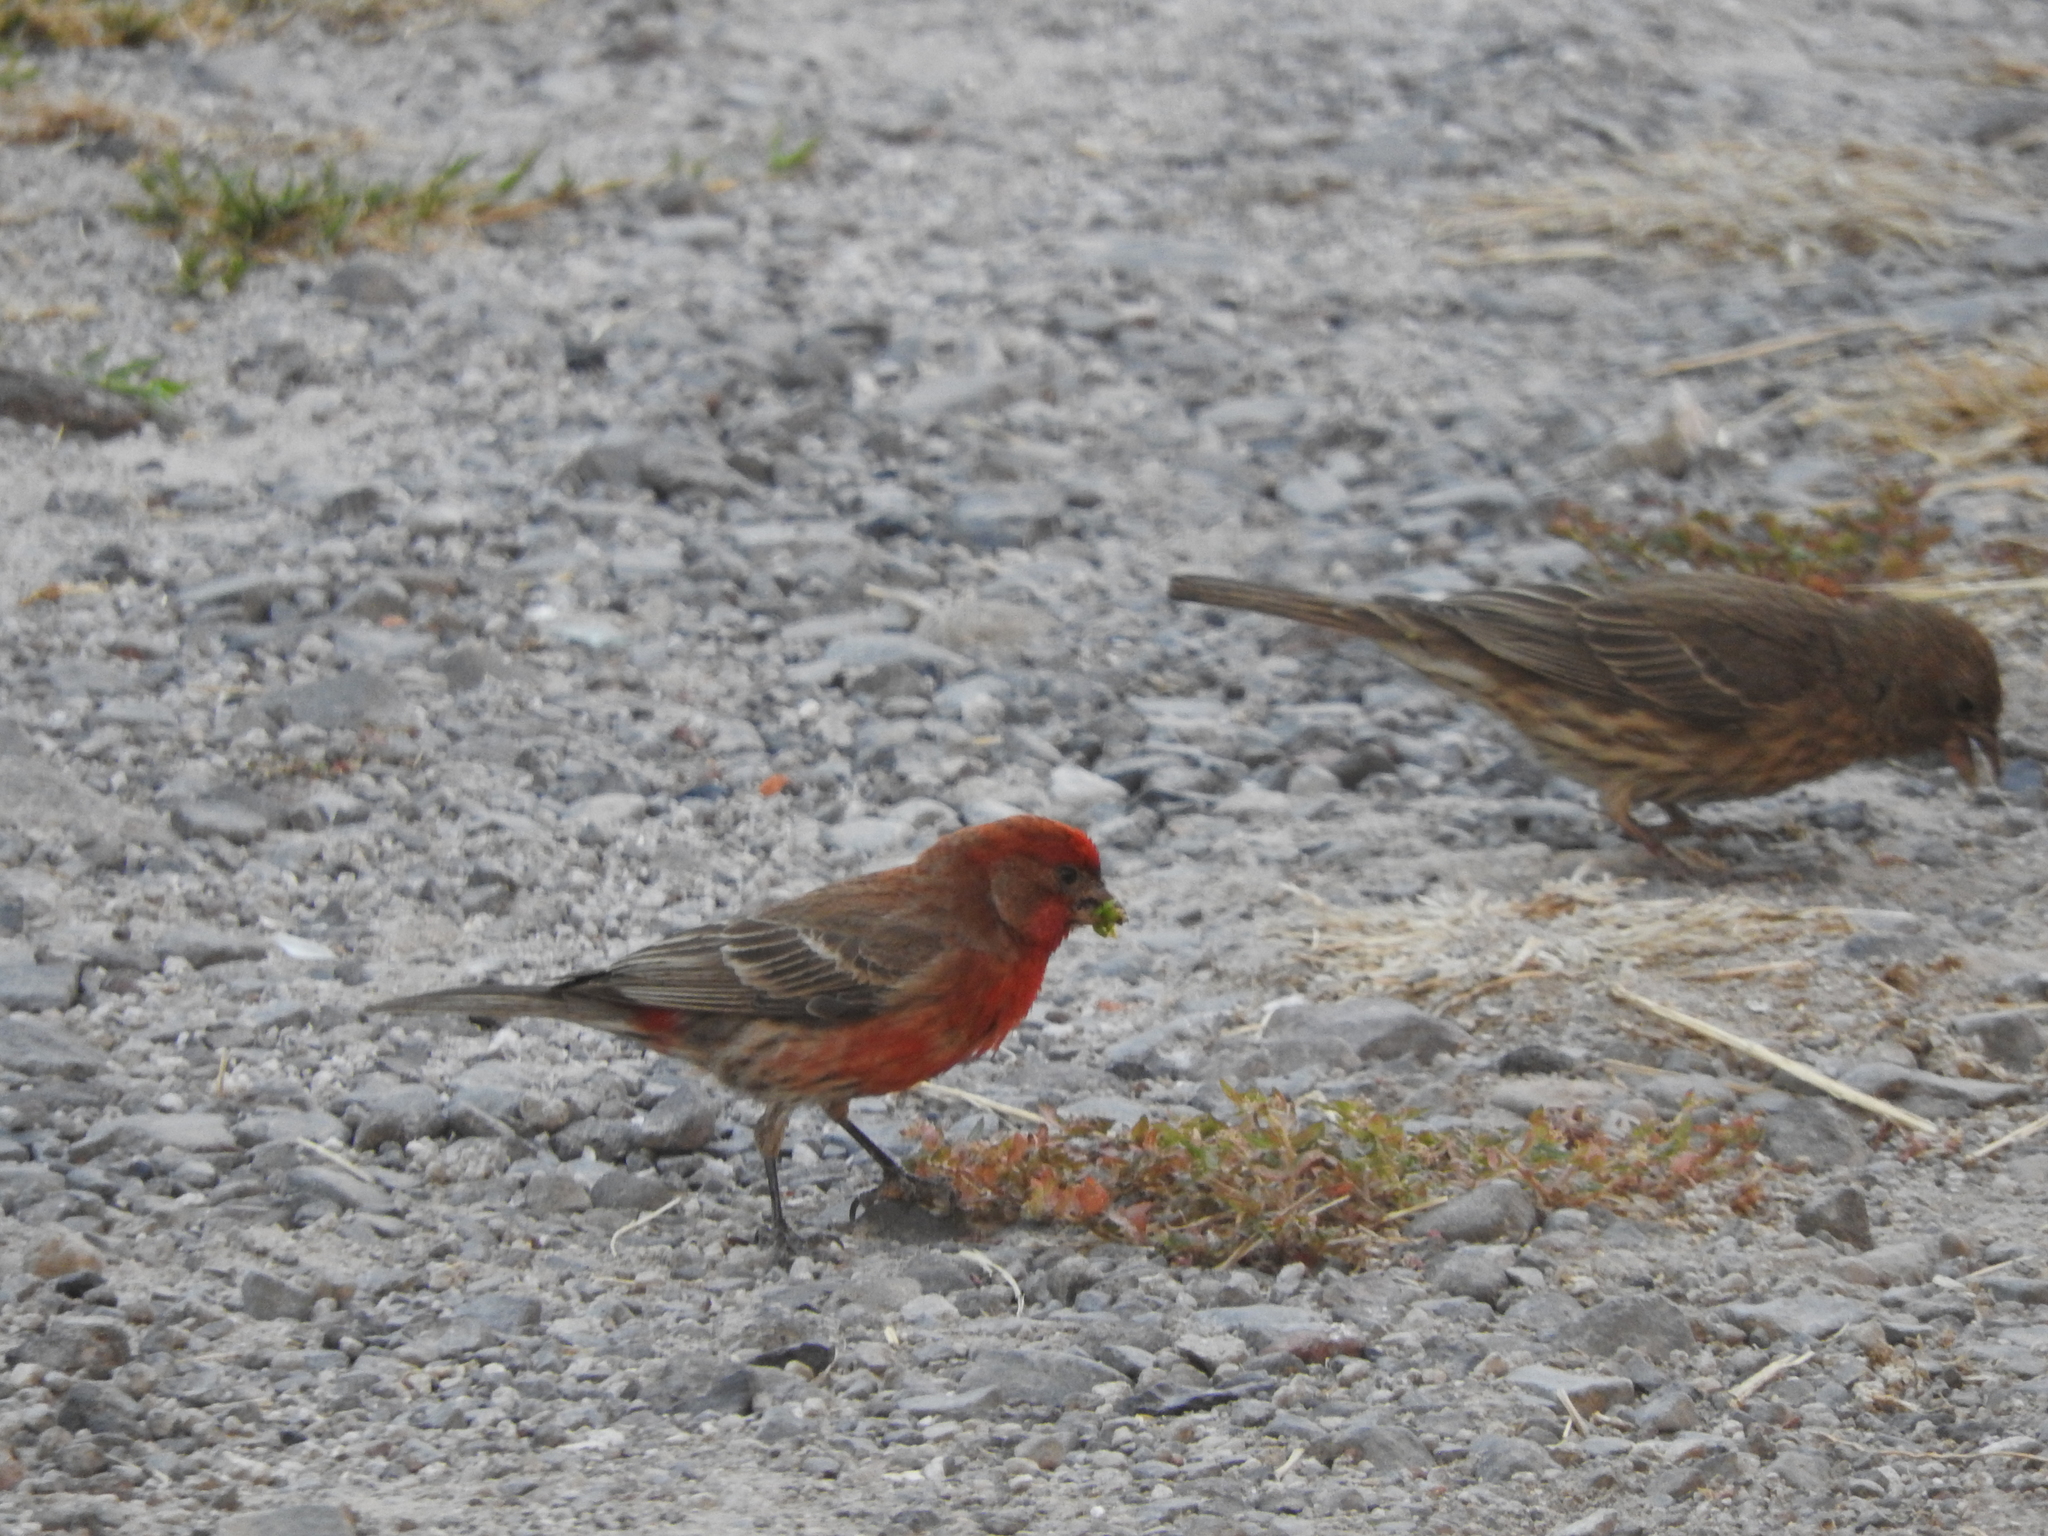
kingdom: Animalia
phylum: Chordata
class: Aves
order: Passeriformes
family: Fringillidae
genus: Haemorhous
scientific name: Haemorhous mexicanus
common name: House finch
